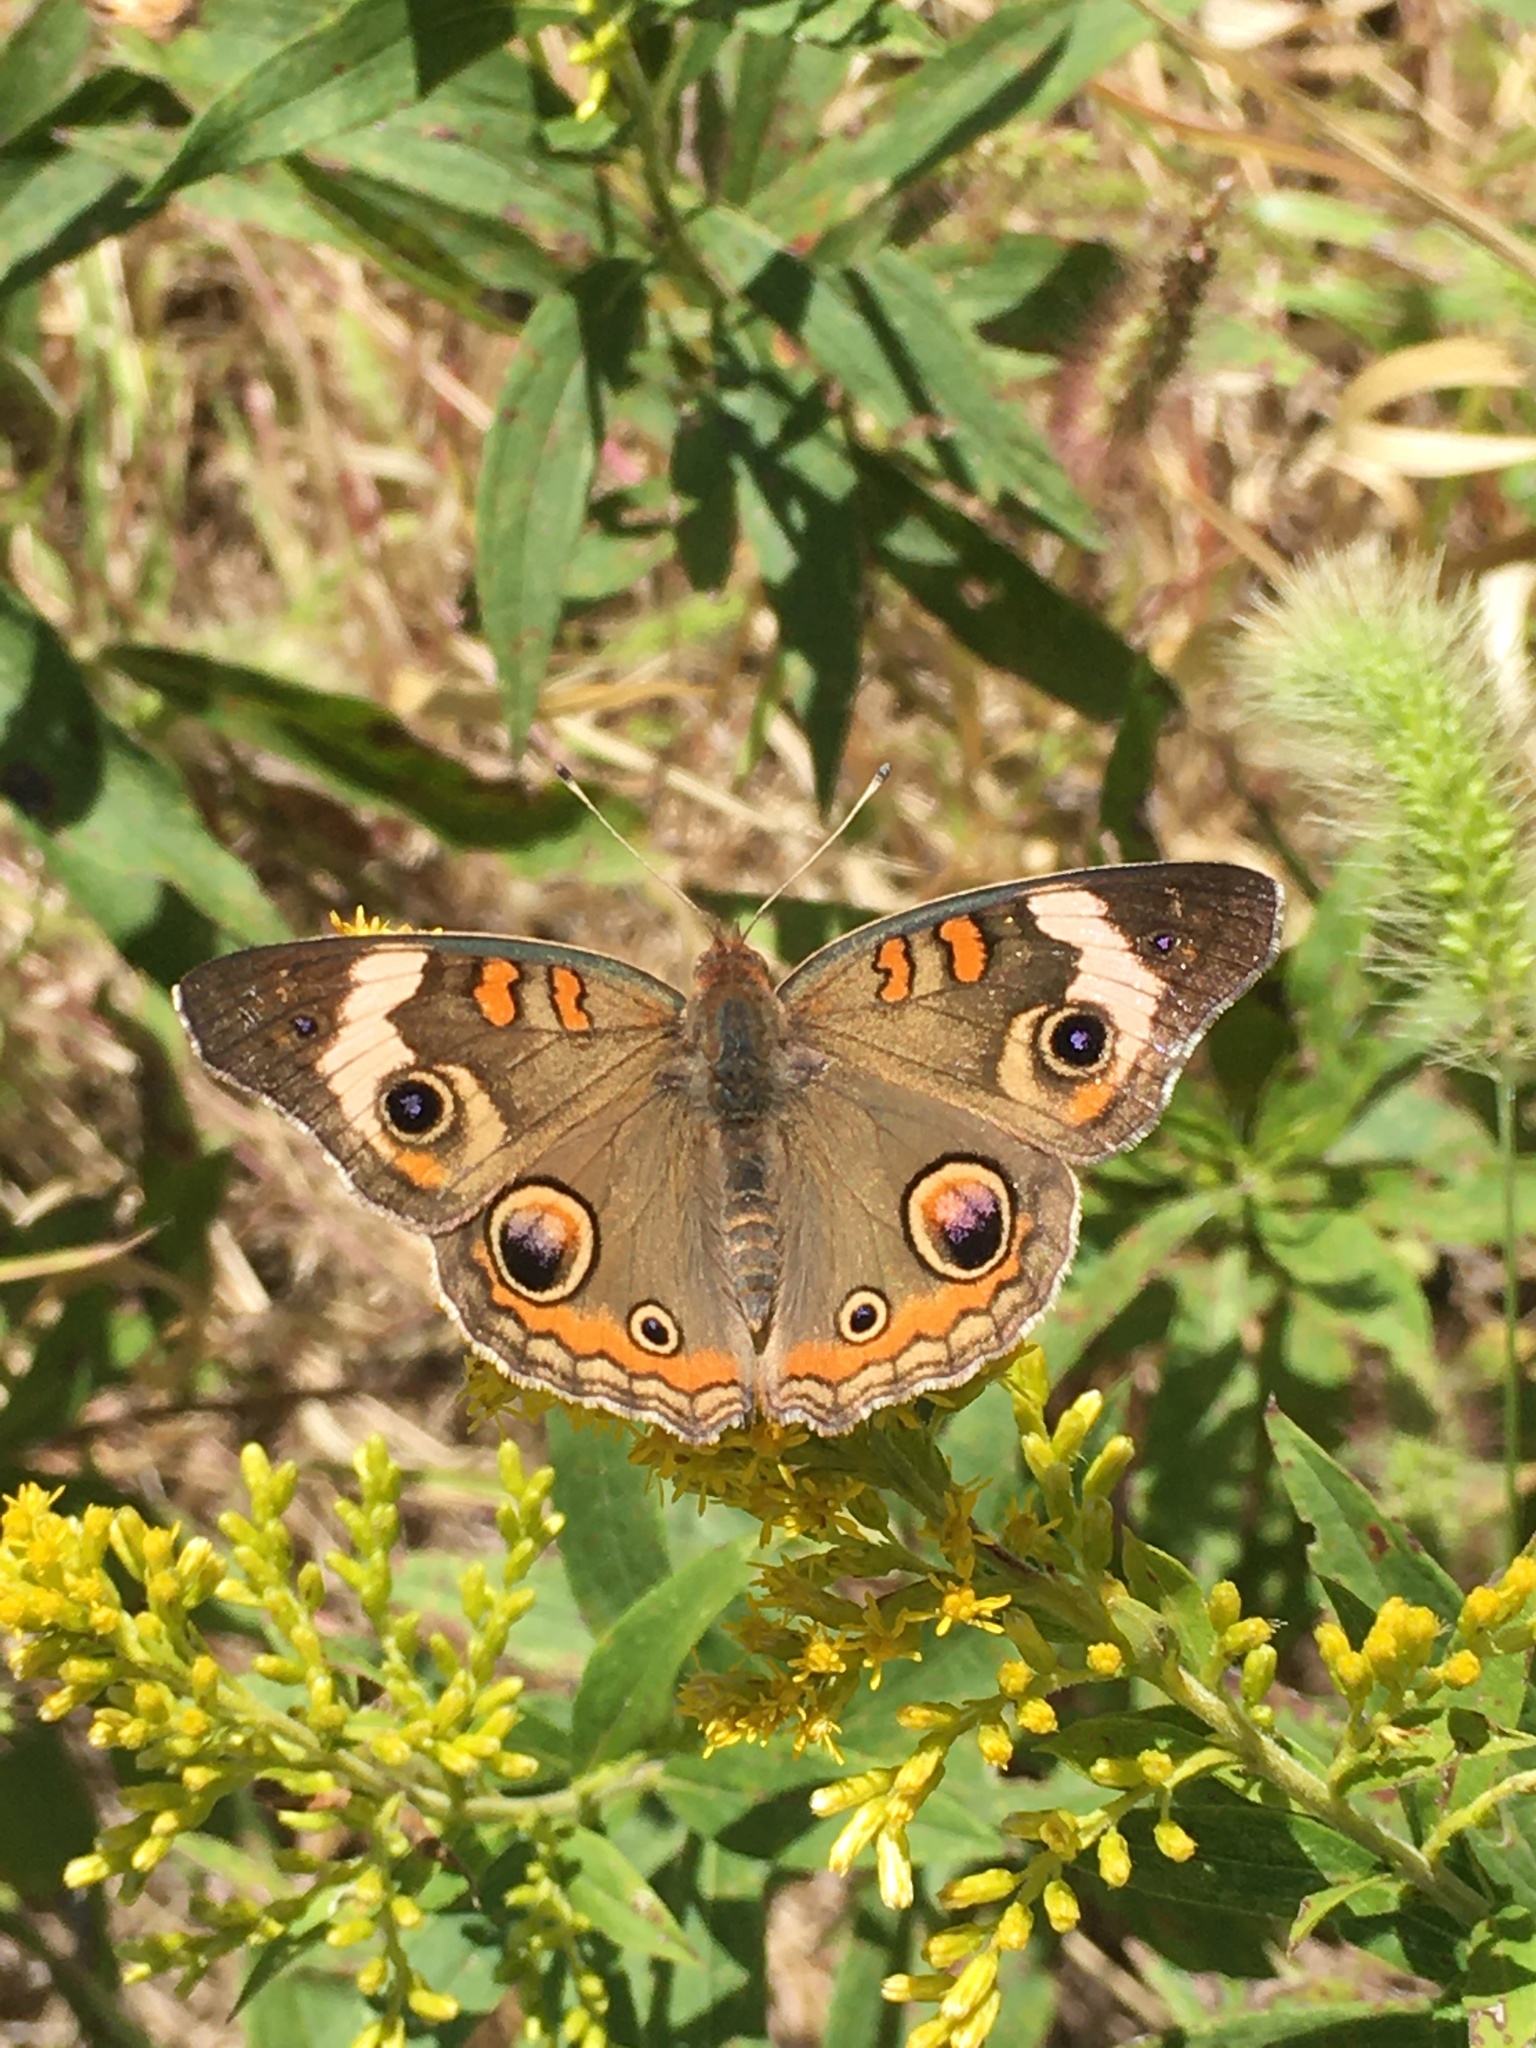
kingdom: Animalia
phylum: Arthropoda
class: Insecta
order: Lepidoptera
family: Nymphalidae
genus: Junonia
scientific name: Junonia coenia
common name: Common buckeye
